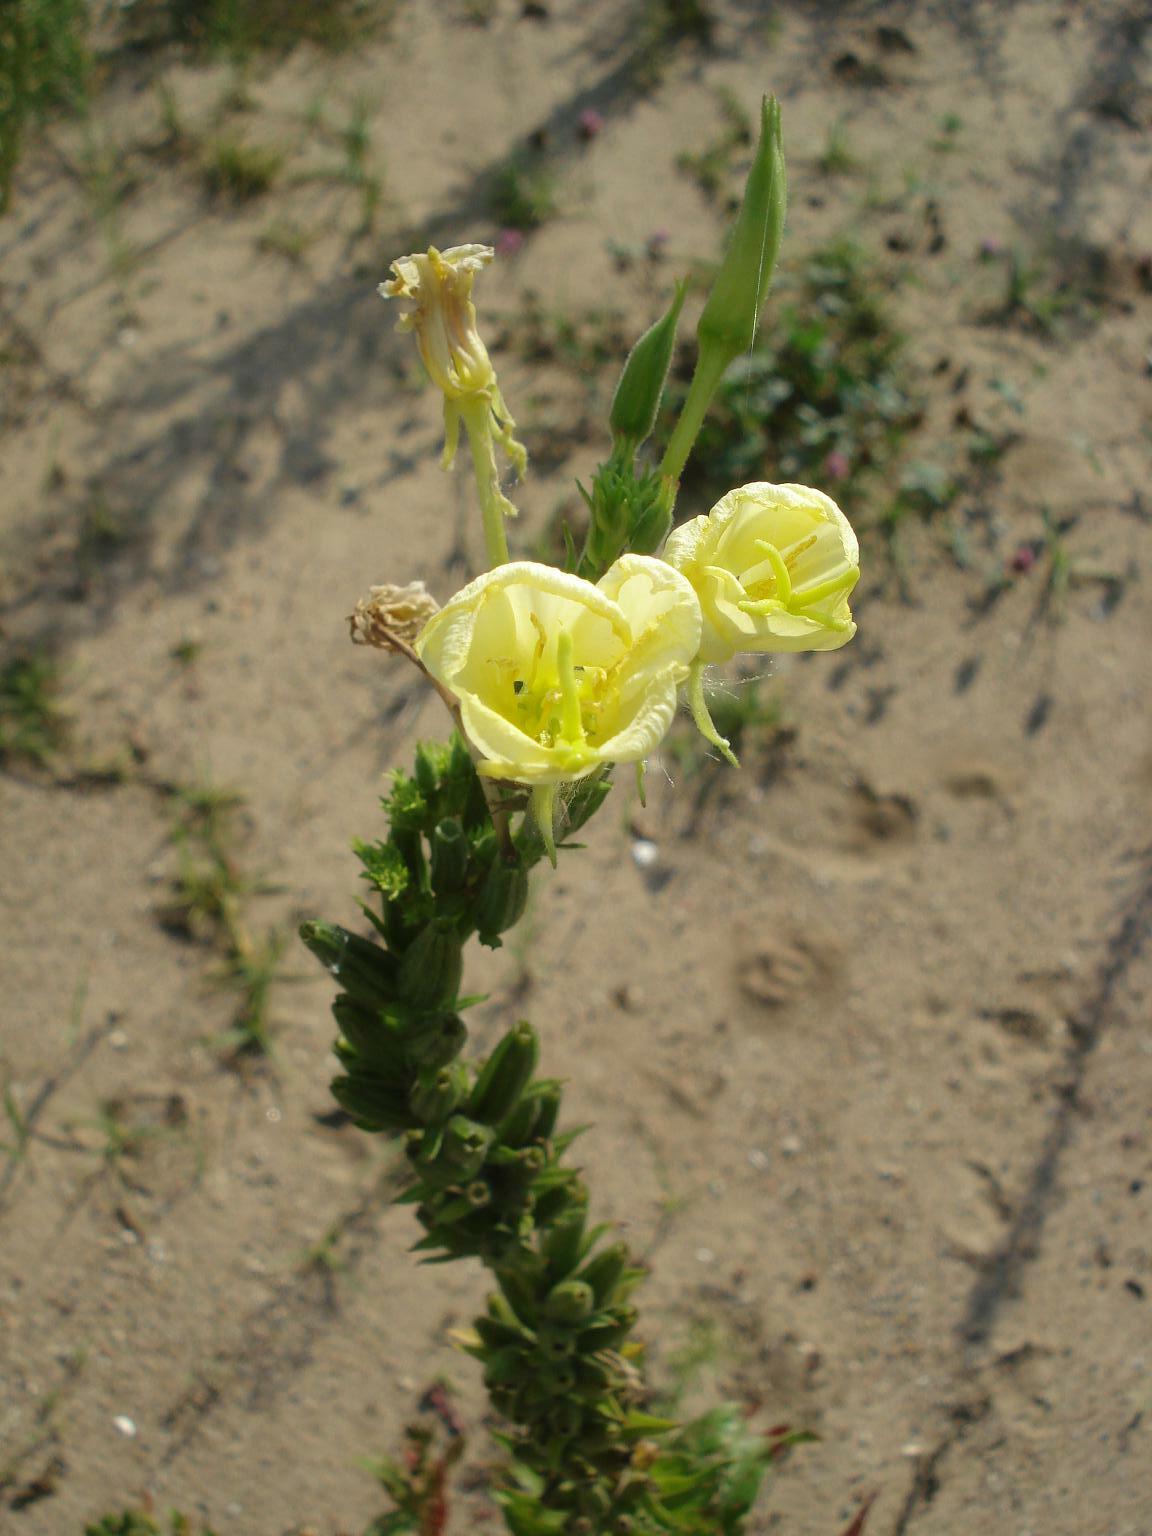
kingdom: Plantae
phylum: Tracheophyta
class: Magnoliopsida
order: Myrtales
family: Onagraceae
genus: Oenothera
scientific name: Oenothera biennis
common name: Common evening-primrose
